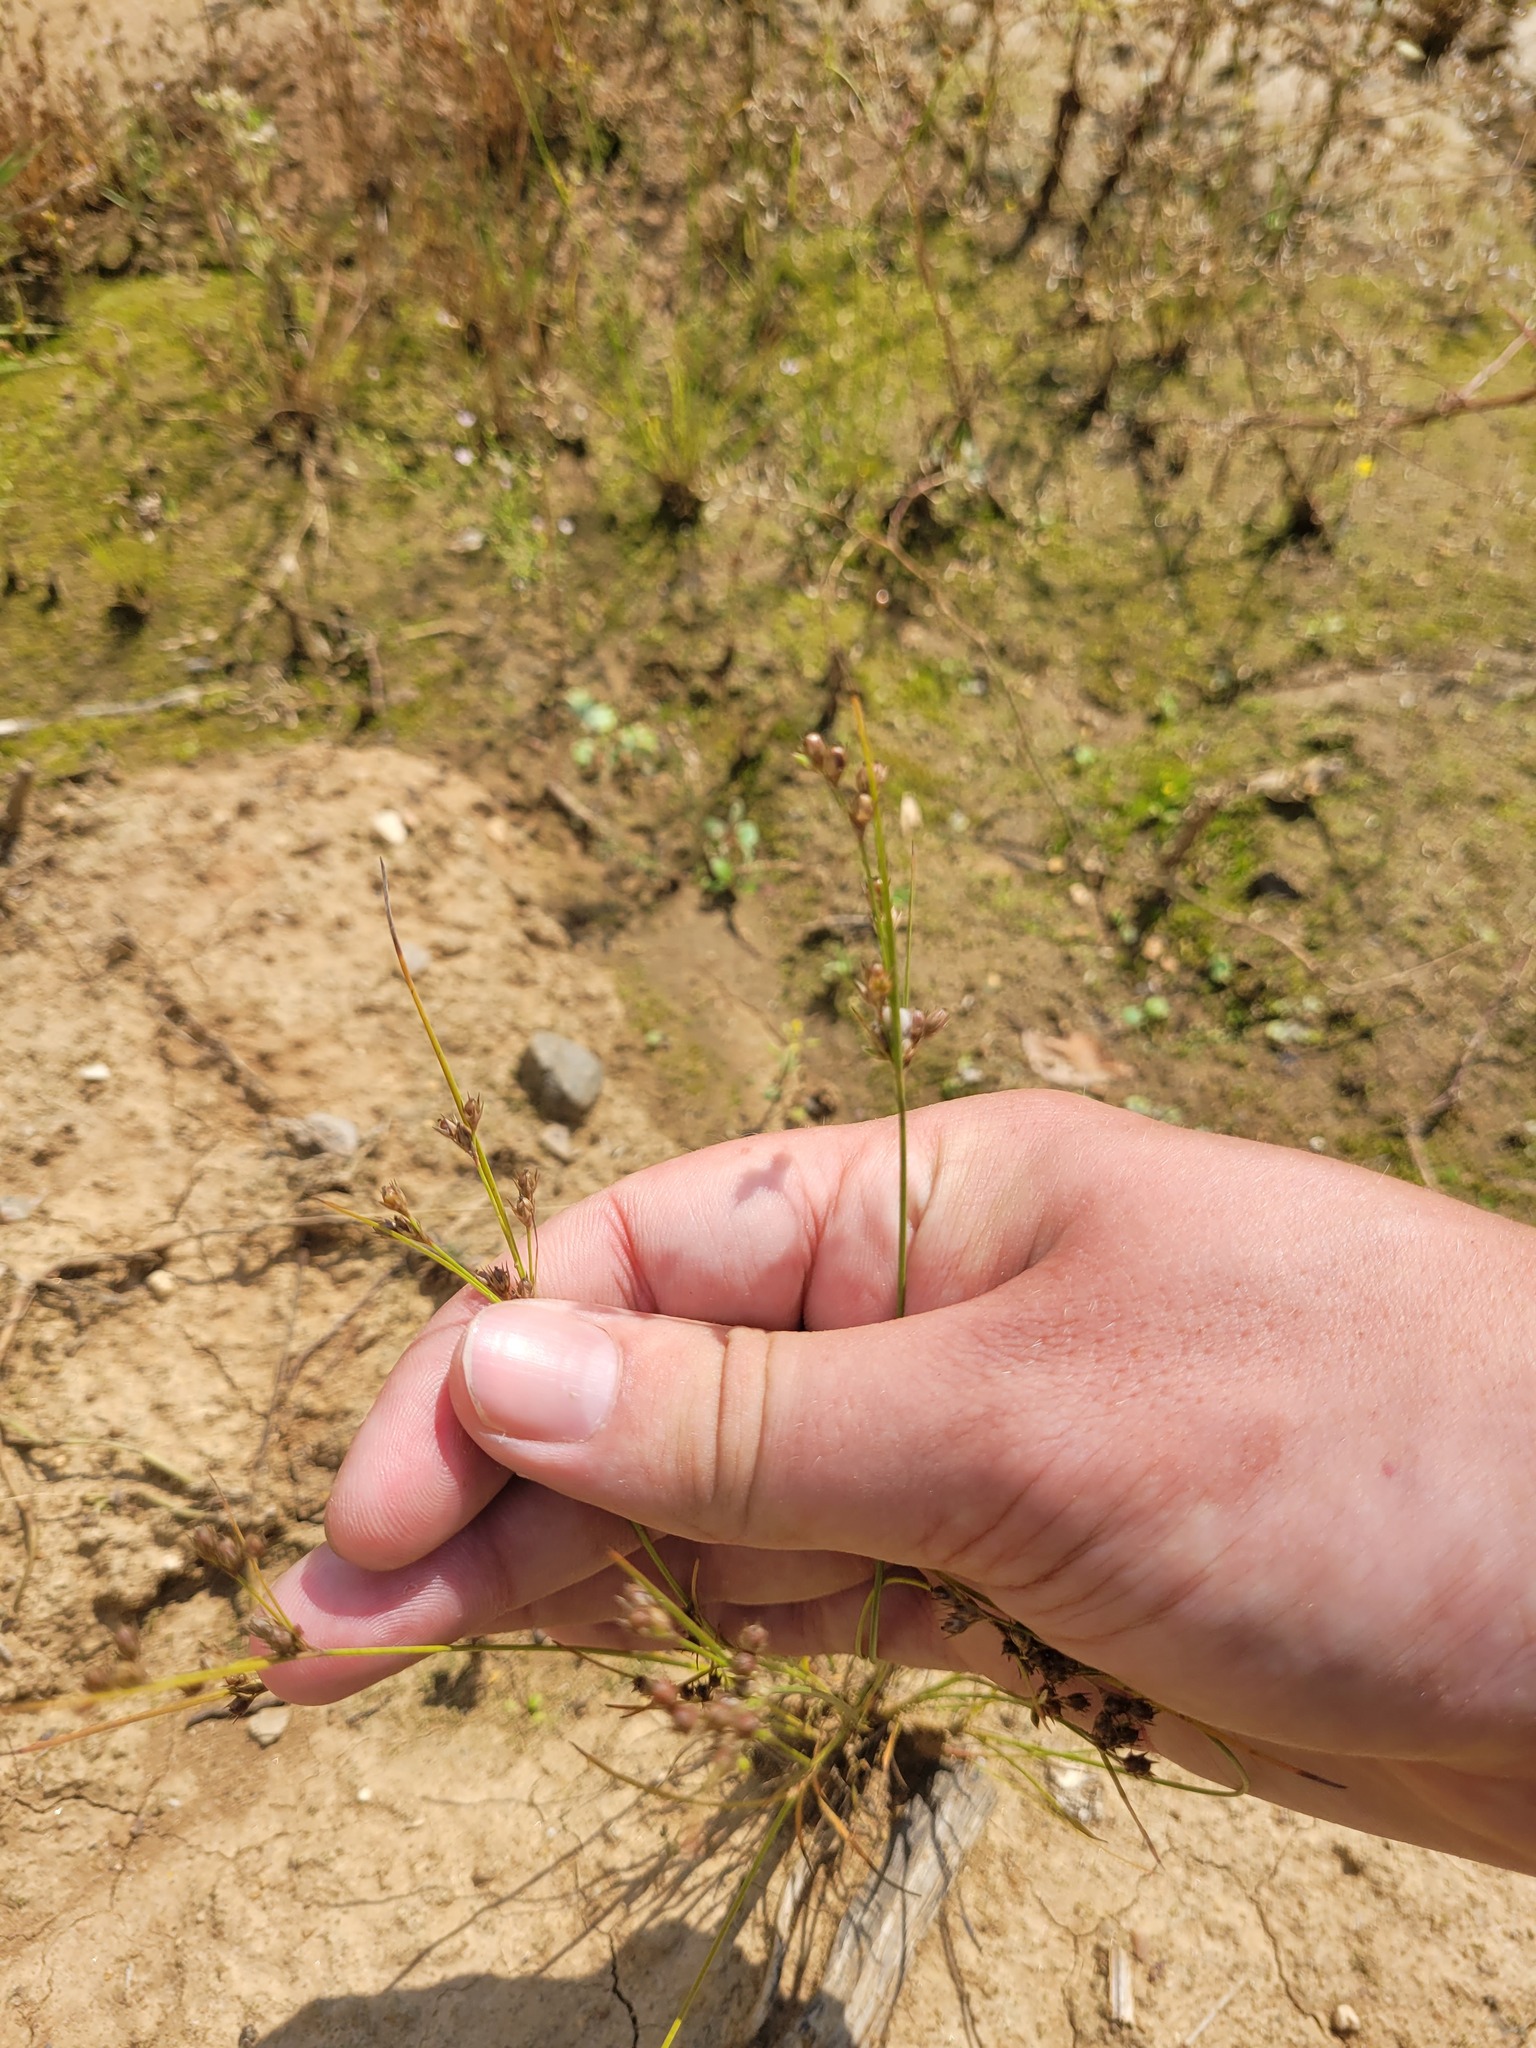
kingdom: Plantae
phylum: Tracheophyta
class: Liliopsida
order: Poales
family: Juncaceae
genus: Juncus
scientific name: Juncus tenuis
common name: Slender rush
